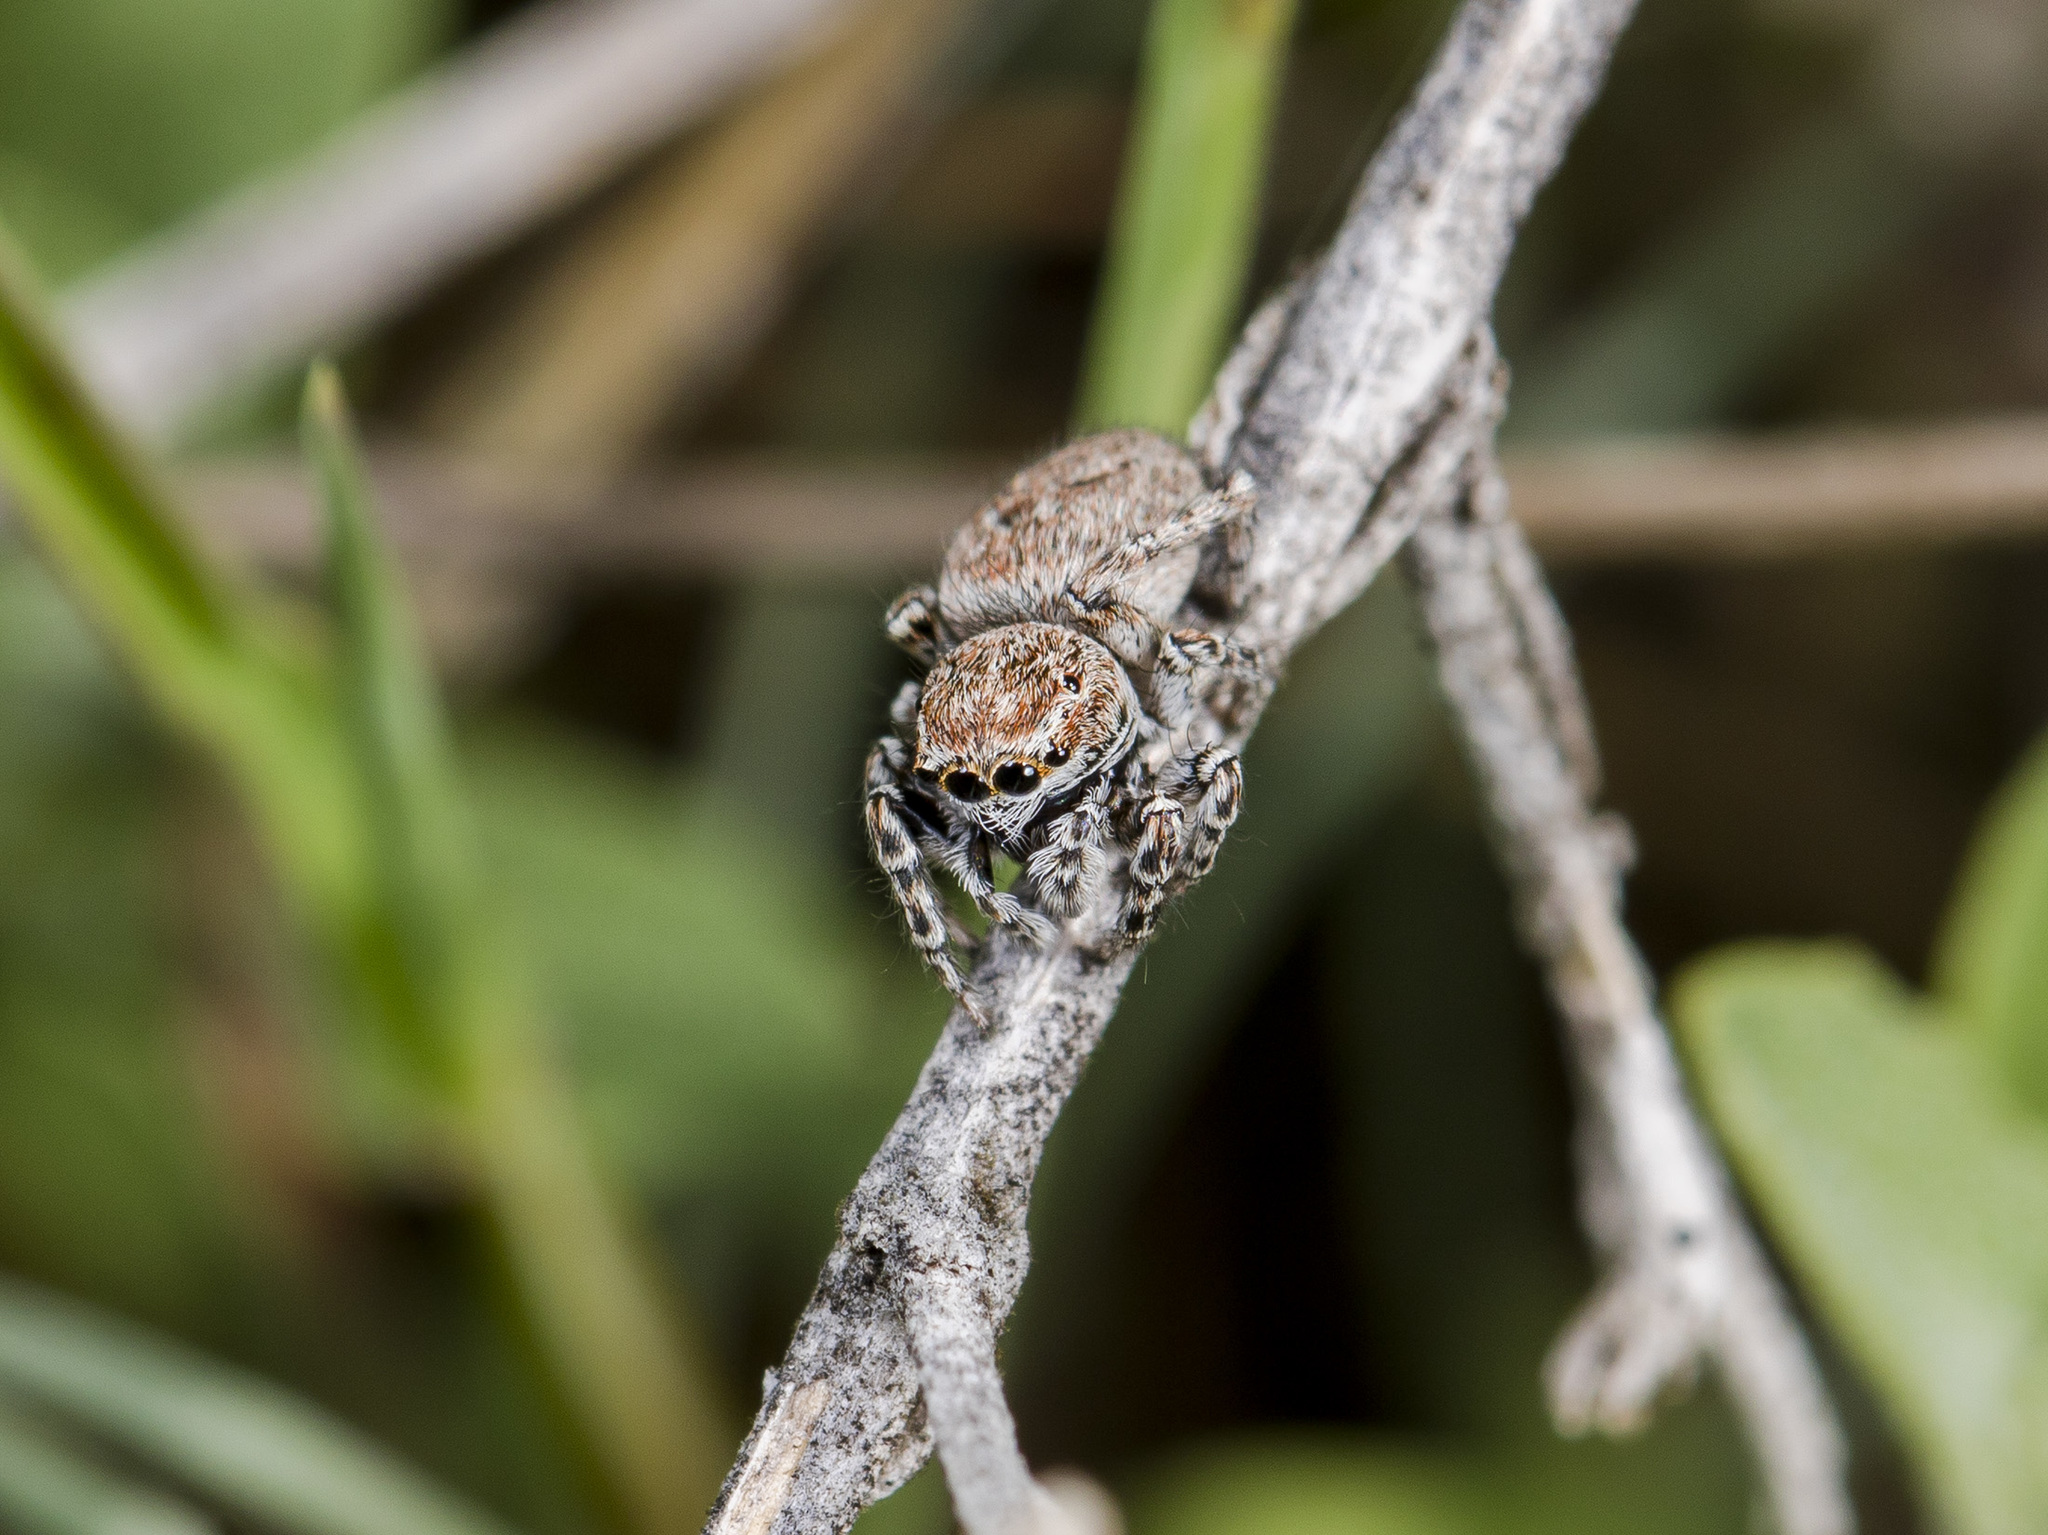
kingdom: Animalia
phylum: Arthropoda
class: Arachnida
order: Araneae
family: Salticidae
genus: Attulus
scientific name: Attulus mirandus
